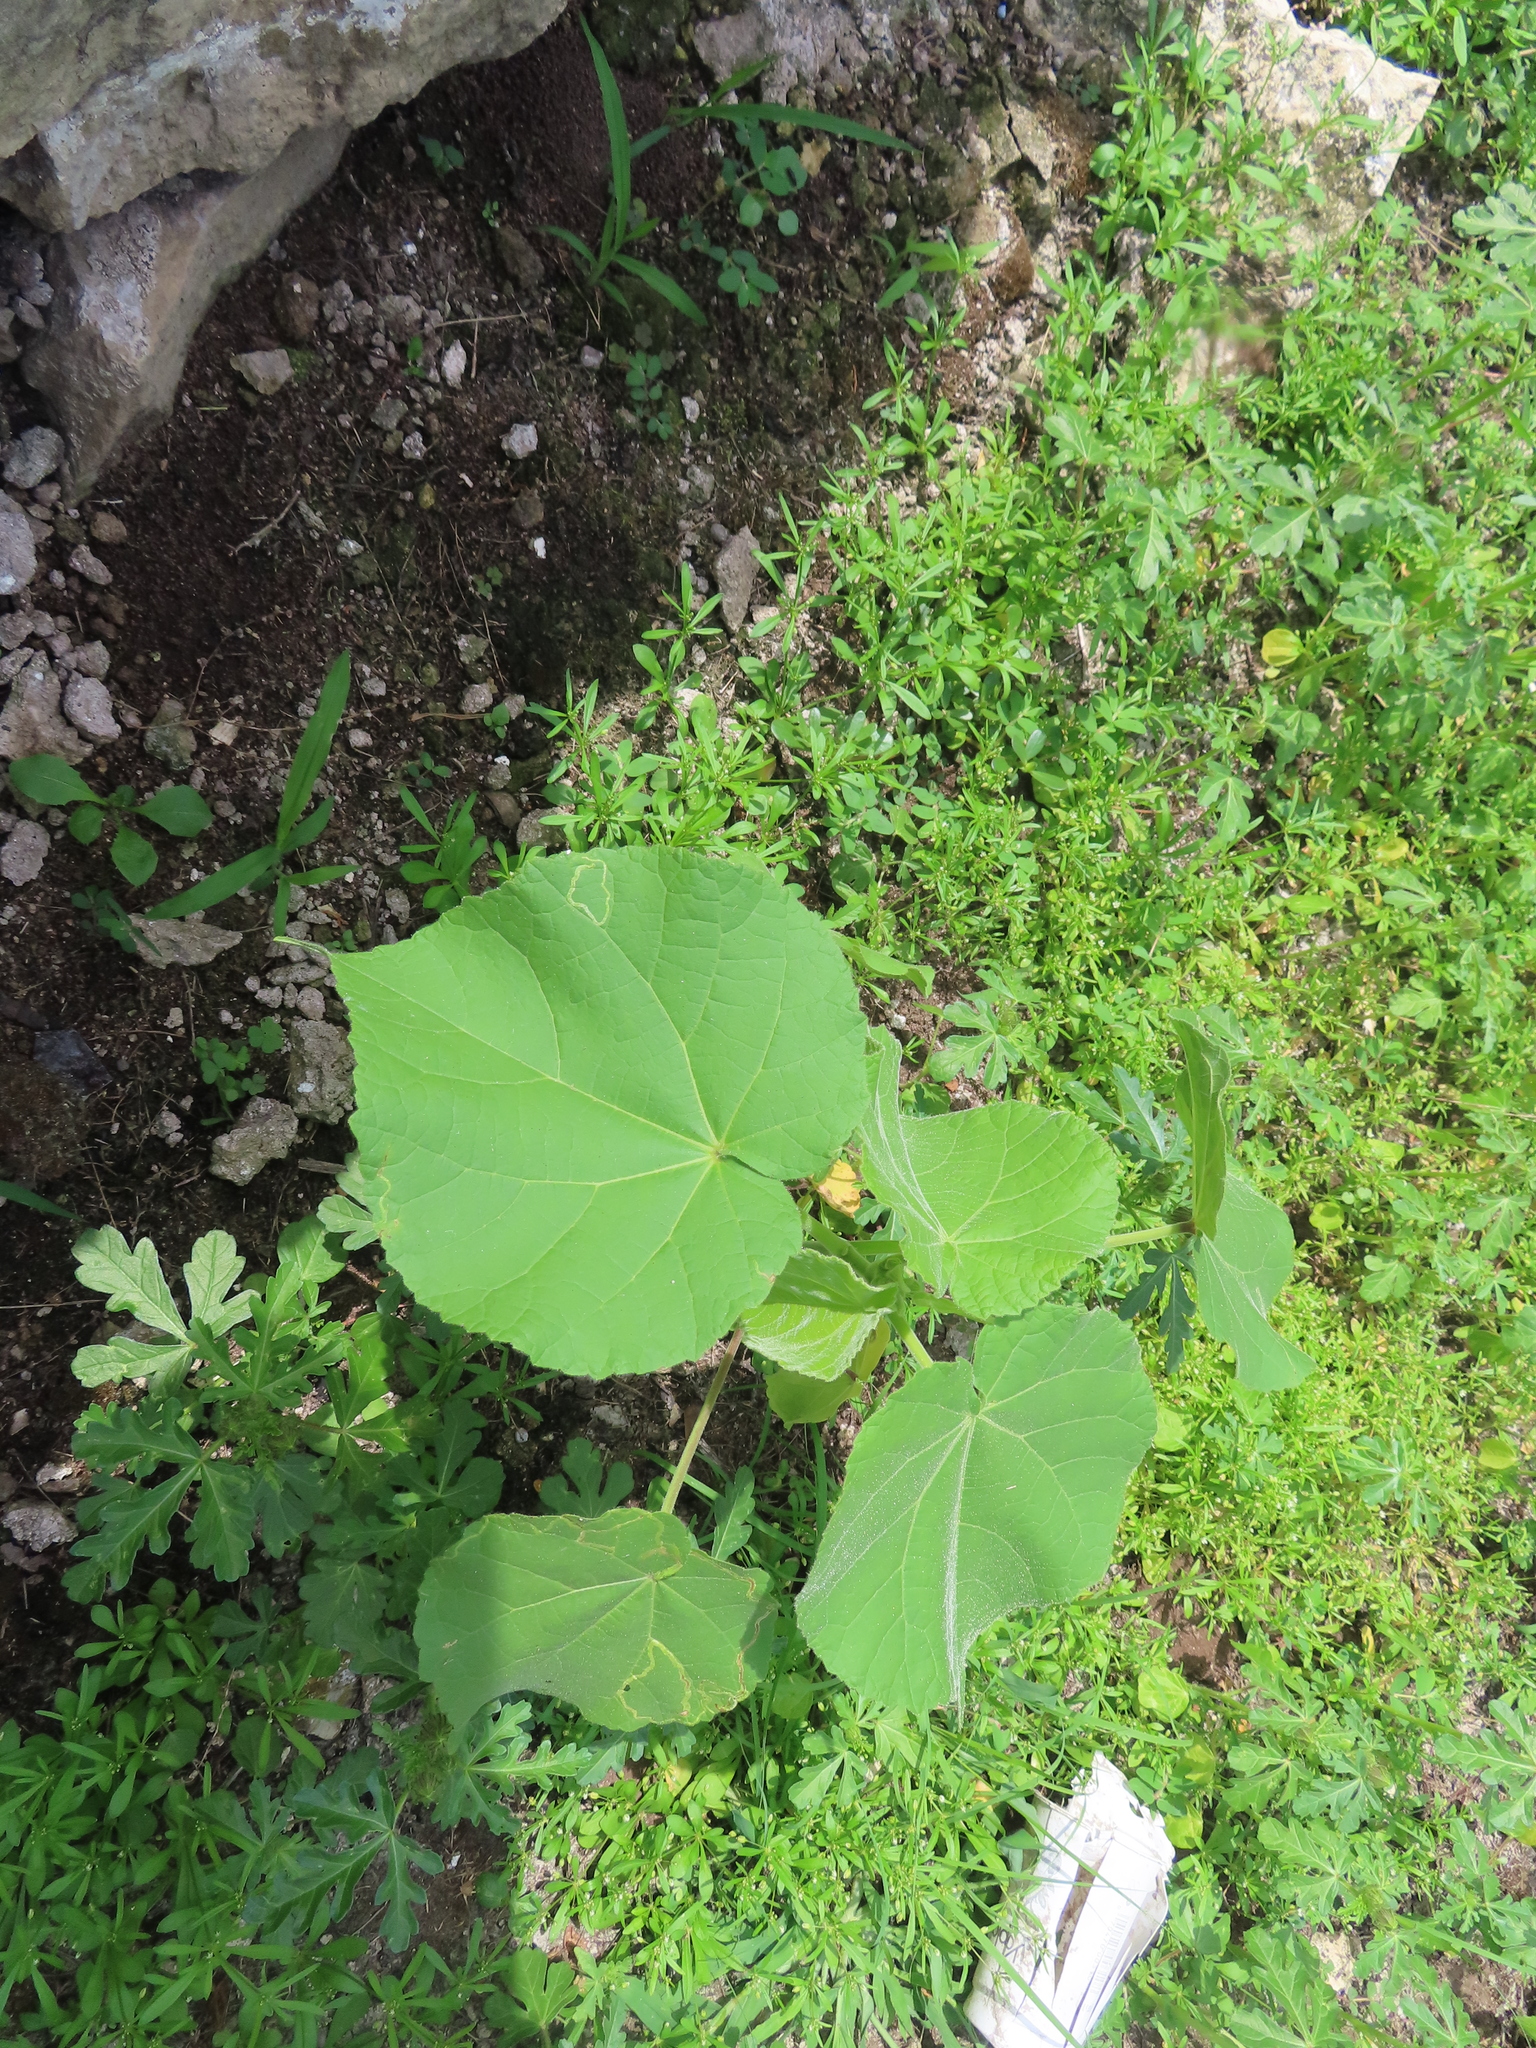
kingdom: Plantae
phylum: Tracheophyta
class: Magnoliopsida
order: Malvales
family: Malvaceae
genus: Abutilon
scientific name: Abutilon theophrasti
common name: Velvetleaf
